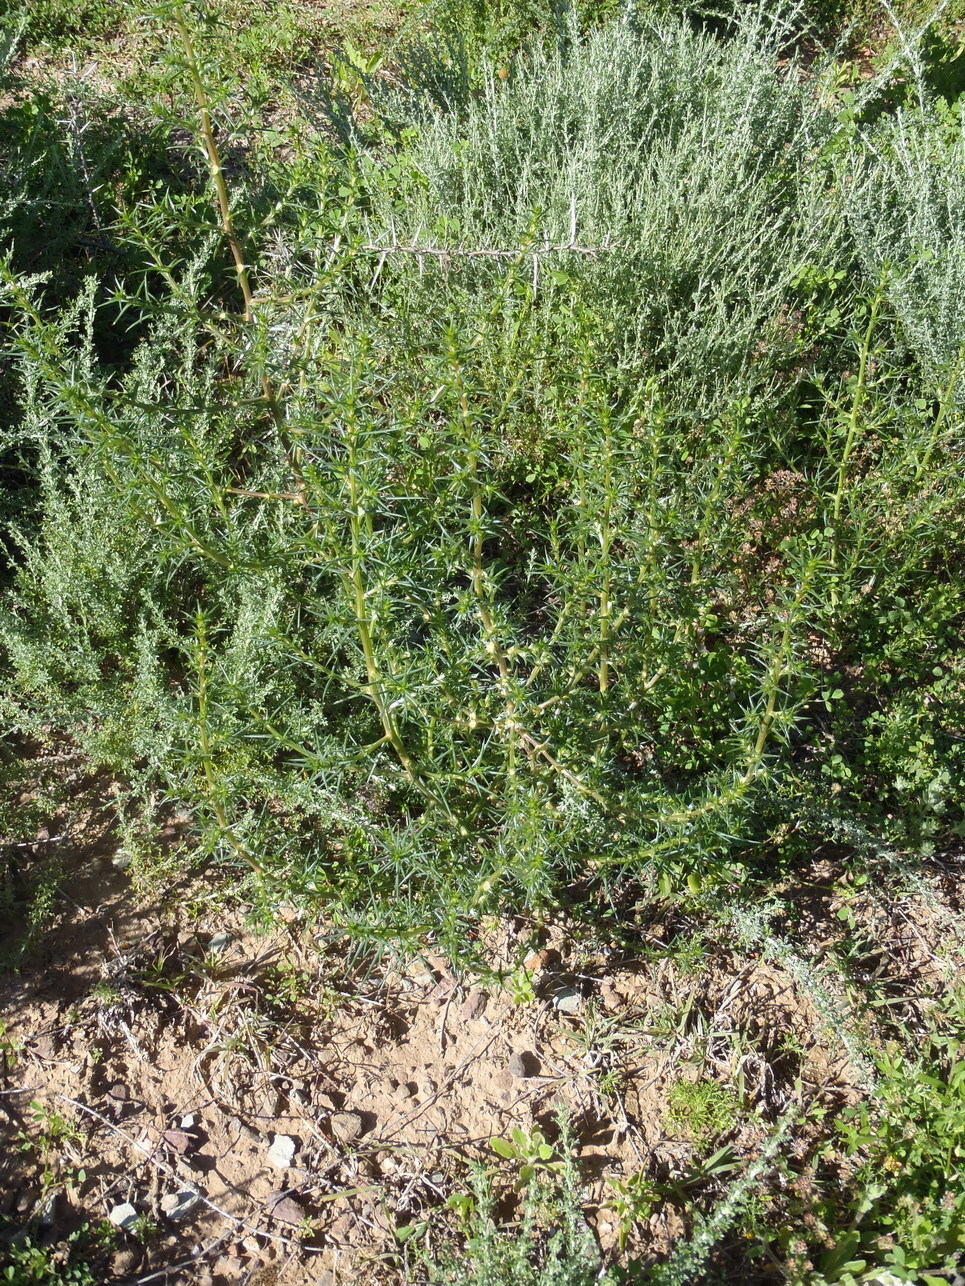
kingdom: Plantae
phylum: Tracheophyta
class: Magnoliopsida
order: Caryophyllales
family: Amaranthaceae
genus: Salsola
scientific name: Salsola kali
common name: Saltwort
